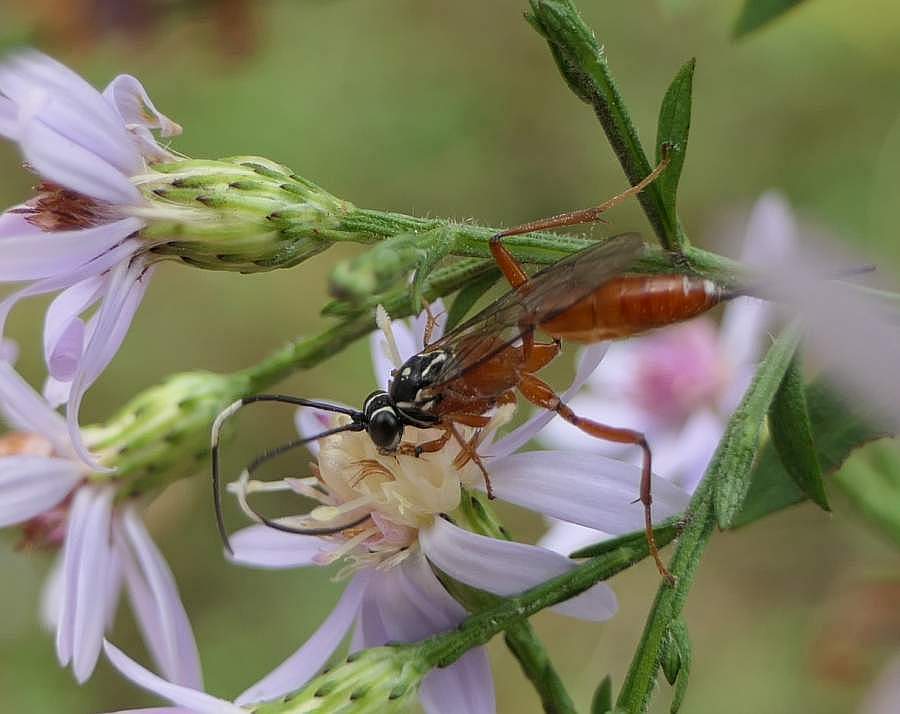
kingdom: Animalia
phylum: Arthropoda
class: Insecta
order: Hymenoptera
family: Ichneumonidae
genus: Mesostenus
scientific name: Mesostenus thoracicus
